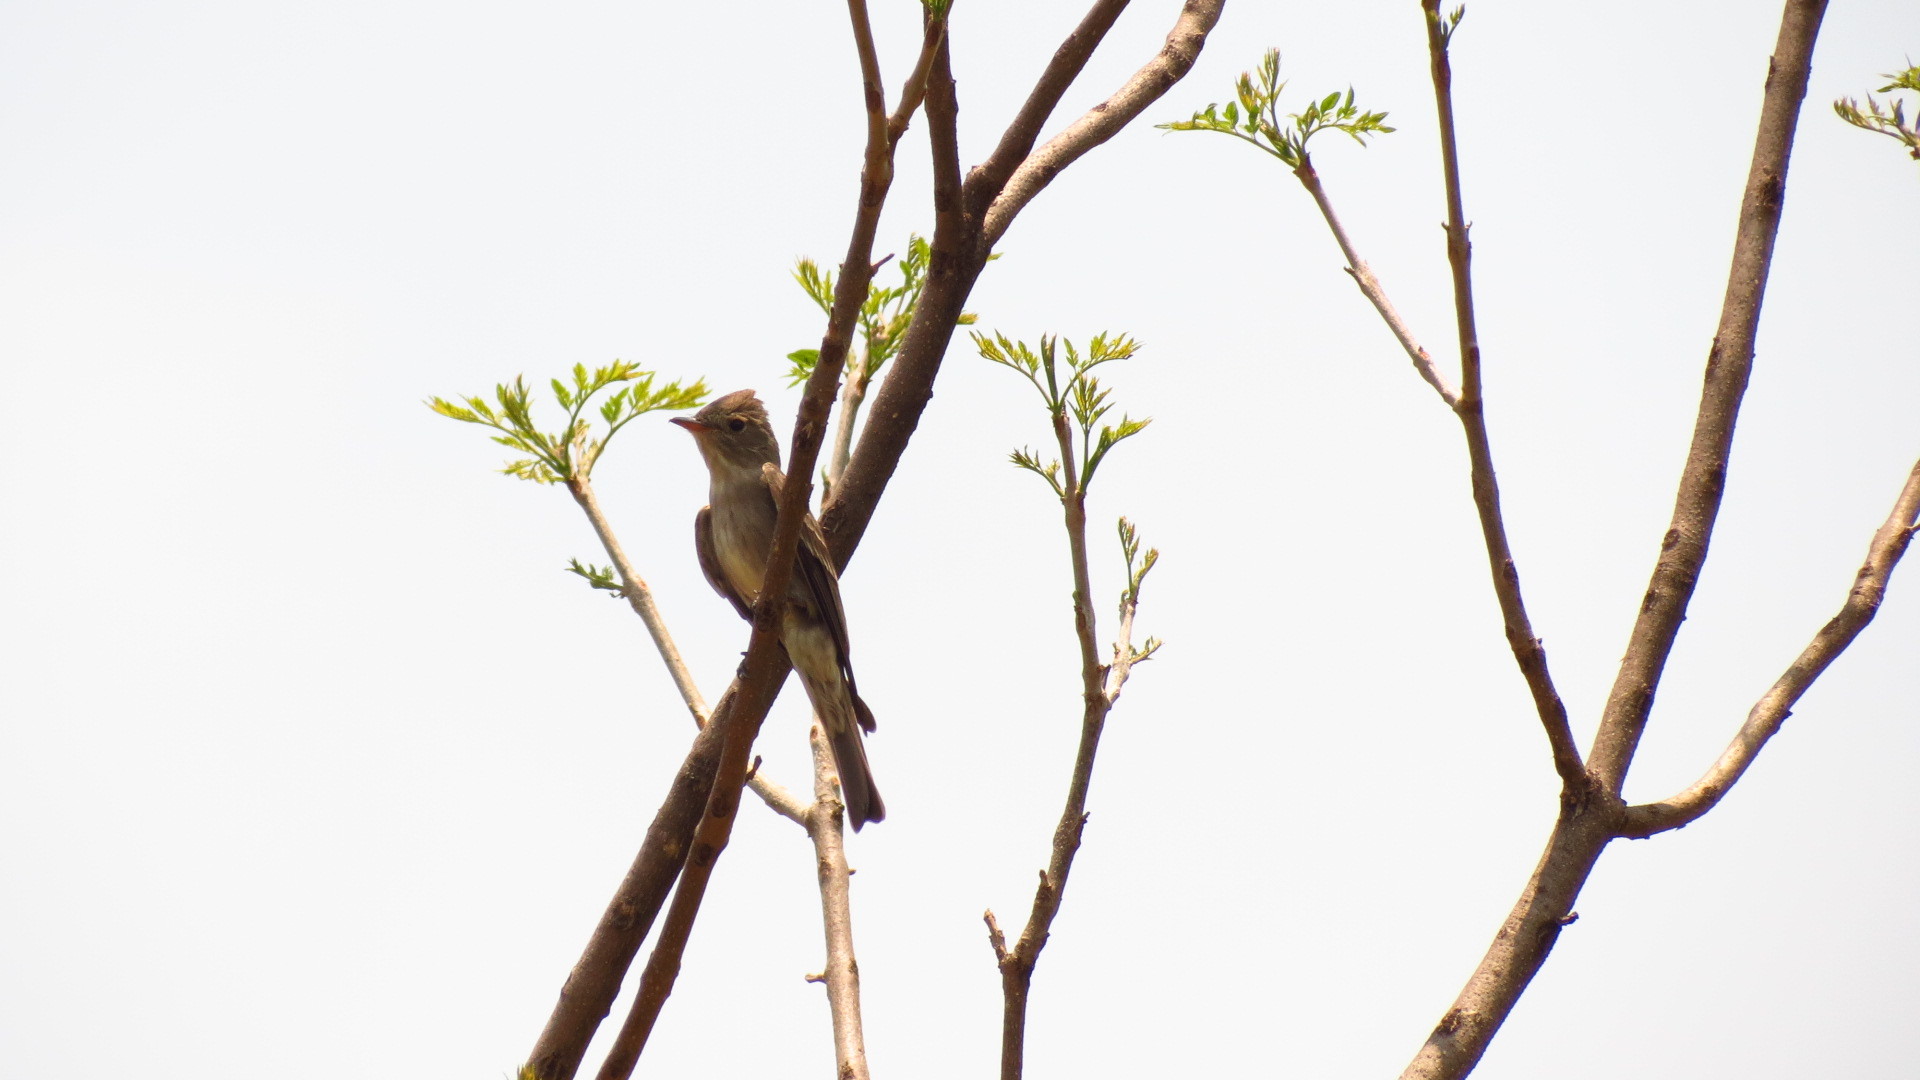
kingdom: Animalia
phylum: Chordata
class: Aves
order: Passeriformes
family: Tyrannidae
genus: Contopus
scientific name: Contopus pertinax
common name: Greater pewee
